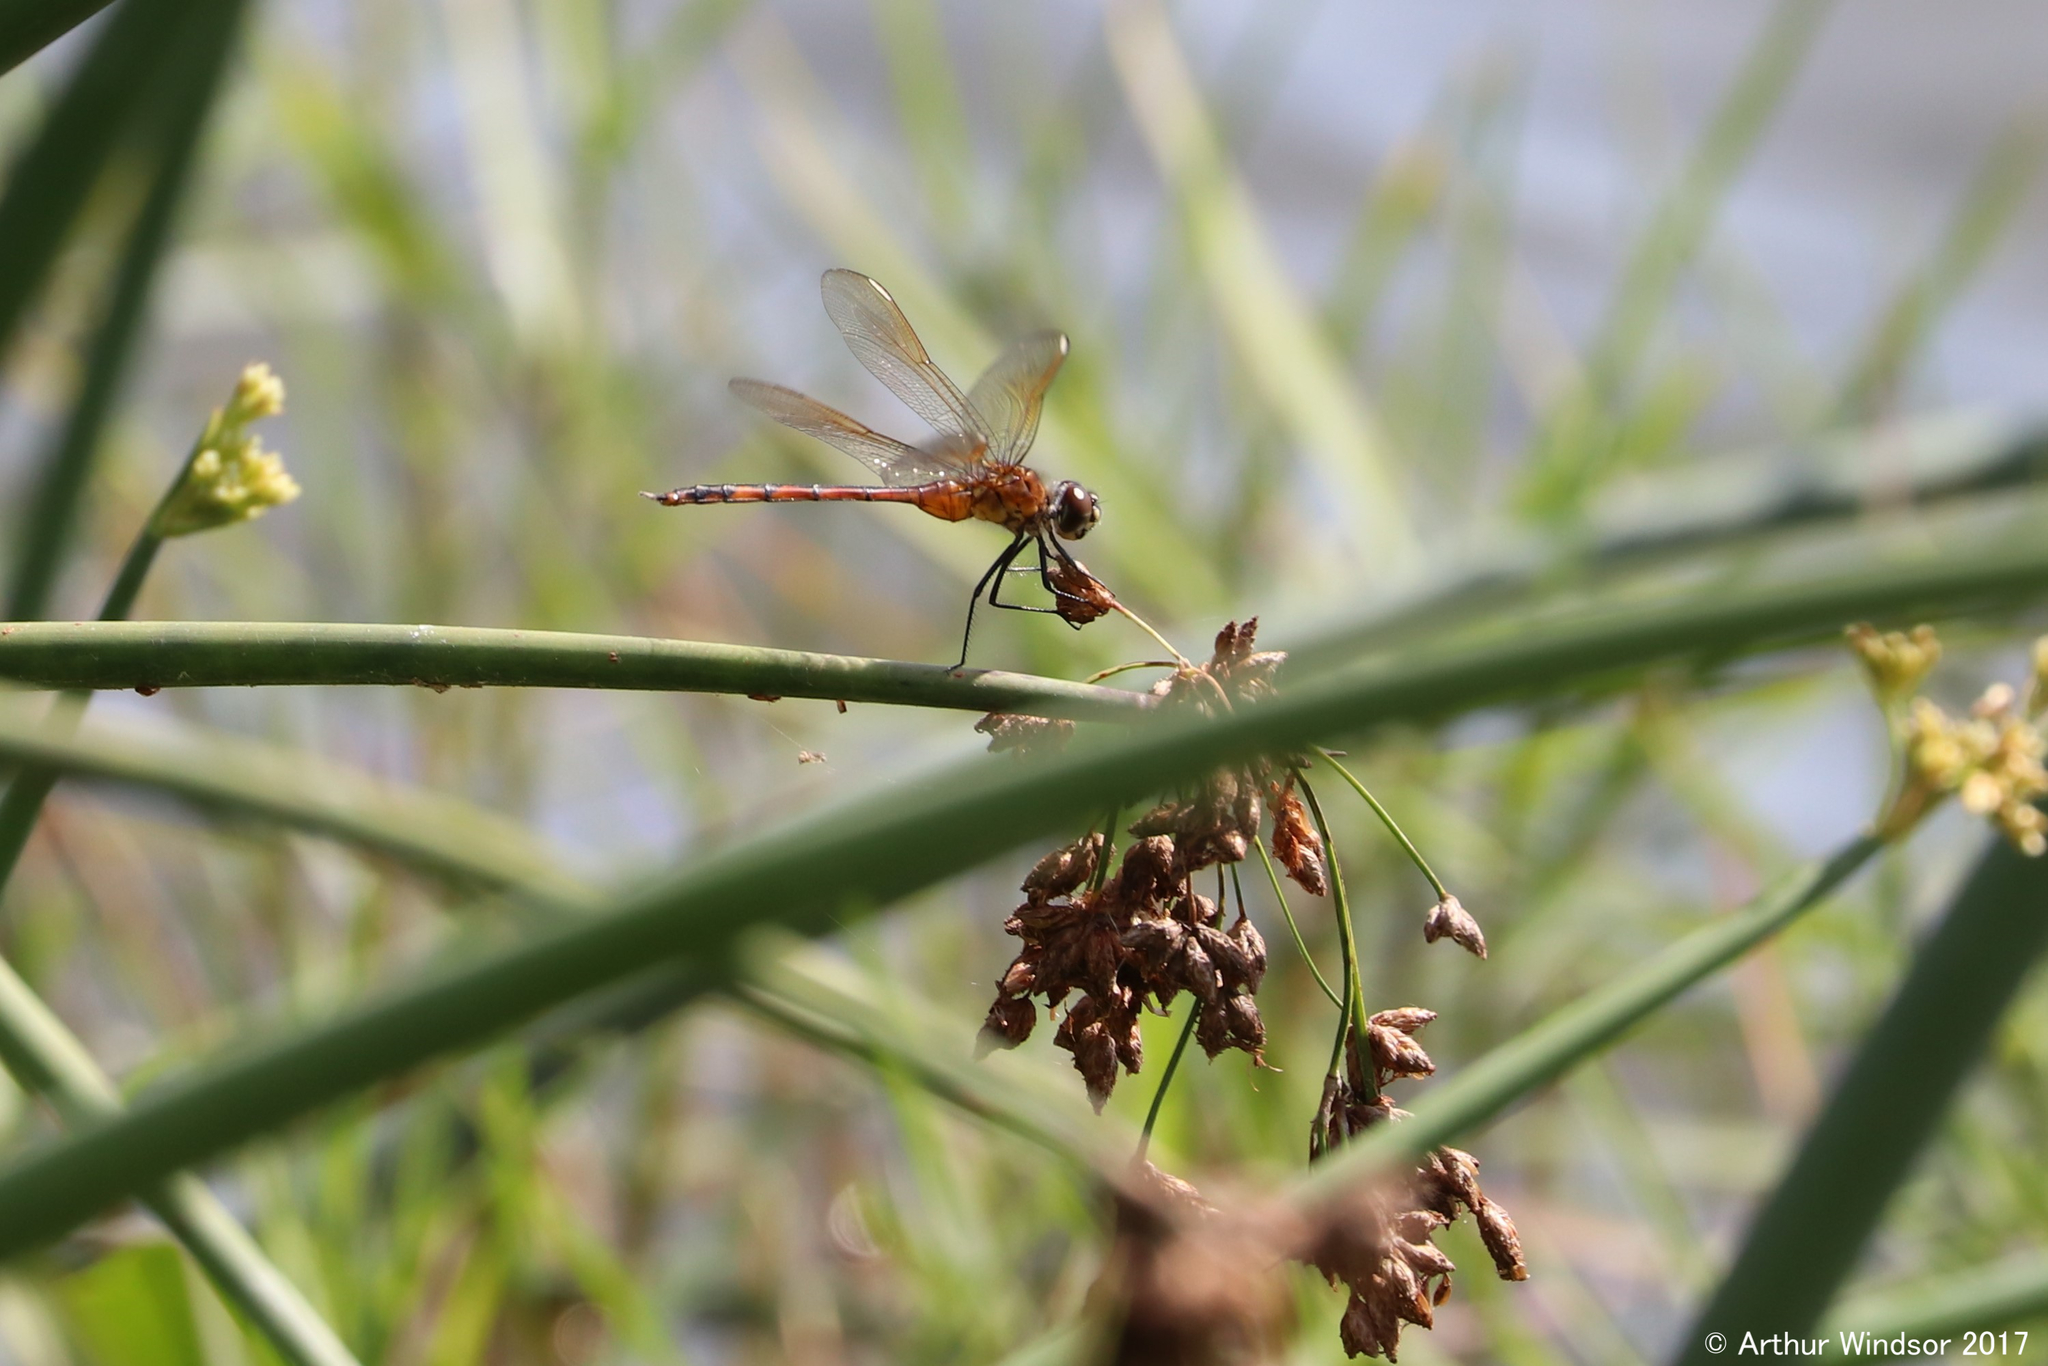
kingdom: Animalia
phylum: Arthropoda
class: Insecta
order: Odonata
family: Libellulidae
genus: Brachymesia
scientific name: Brachymesia gravida
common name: Four-spotted pennant
